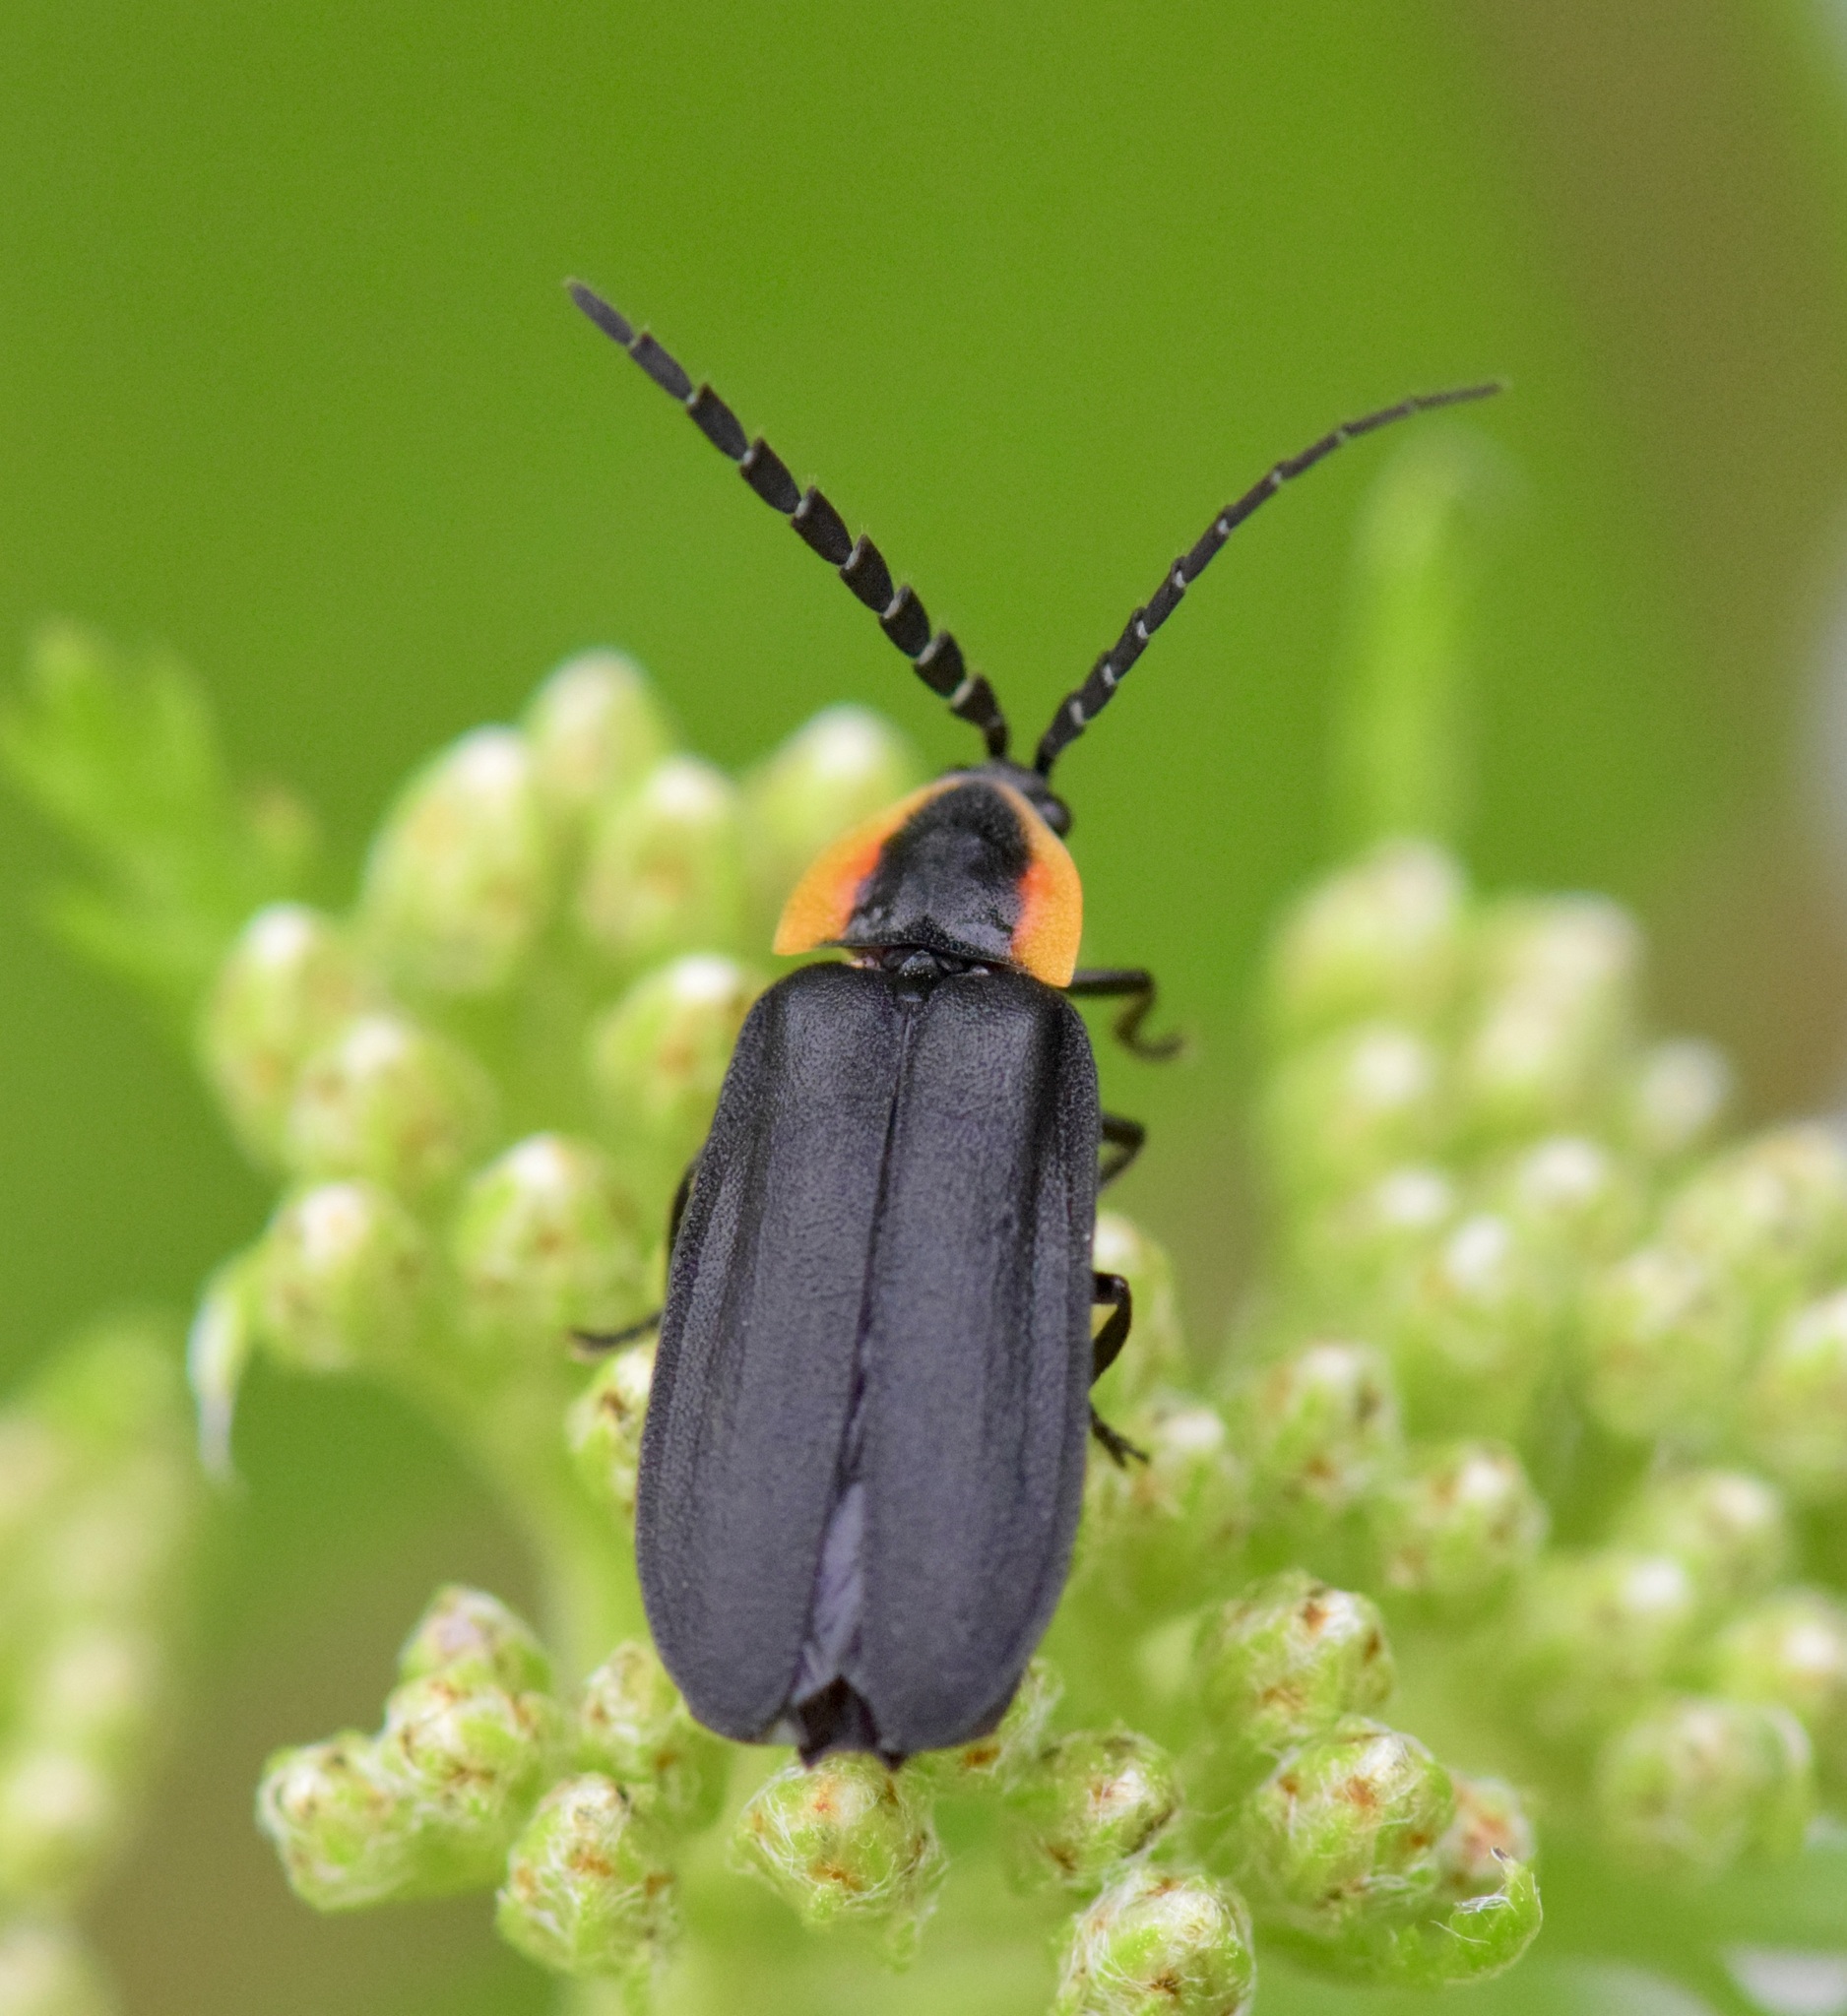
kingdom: Animalia
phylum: Arthropoda
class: Insecta
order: Coleoptera
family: Lampyridae
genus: Lucidota
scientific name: Lucidota atra
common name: Black firefly
